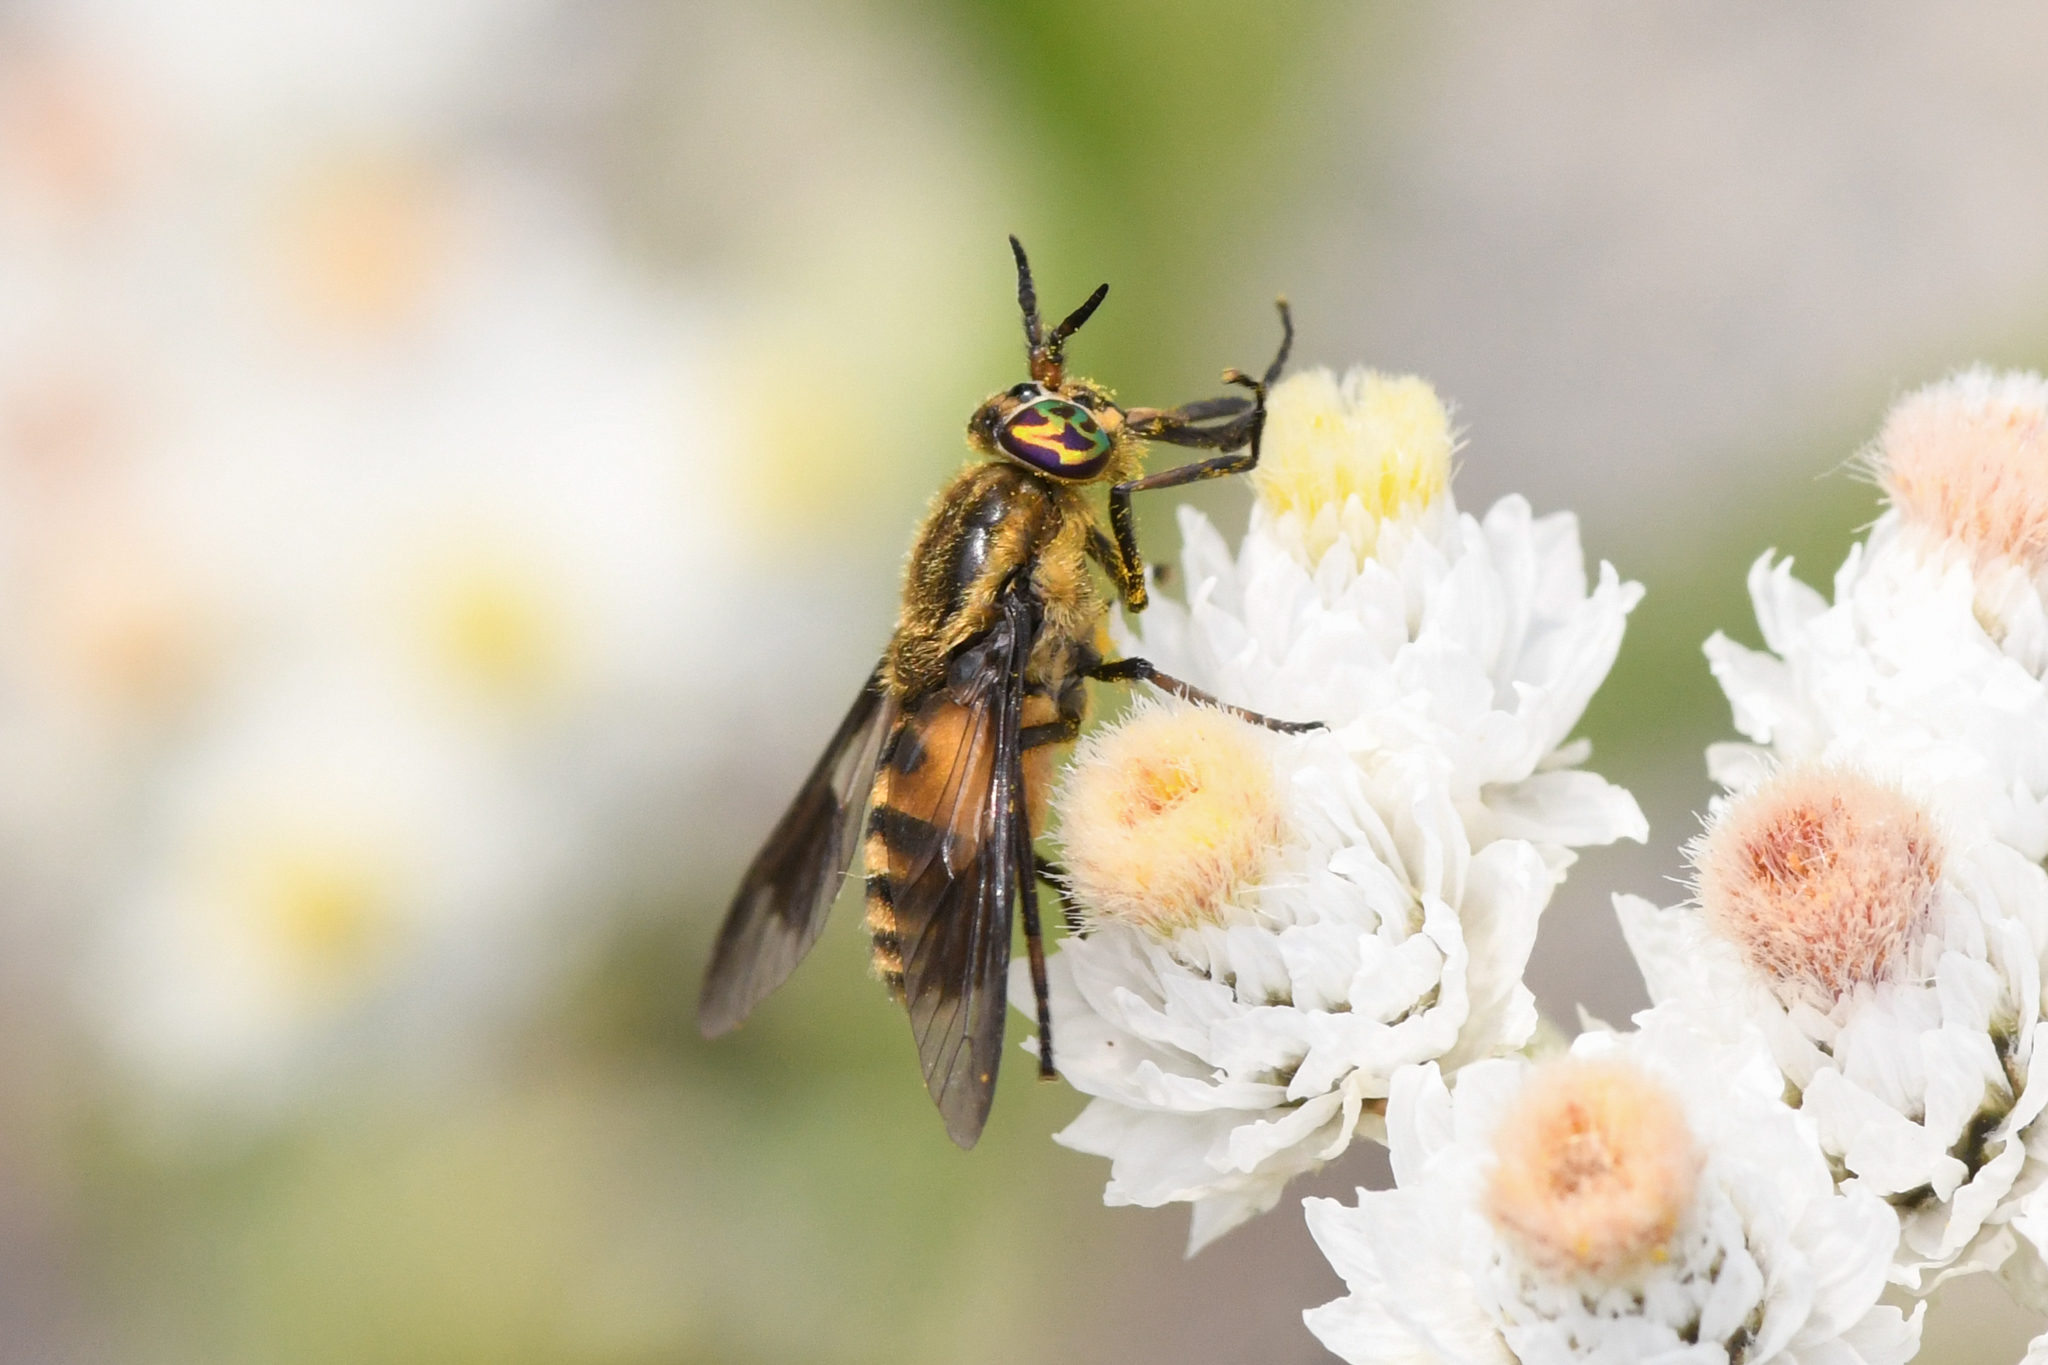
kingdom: Animalia
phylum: Arthropoda
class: Insecta
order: Diptera
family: Tabanidae
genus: Chrysops
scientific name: Chrysops asbestos
